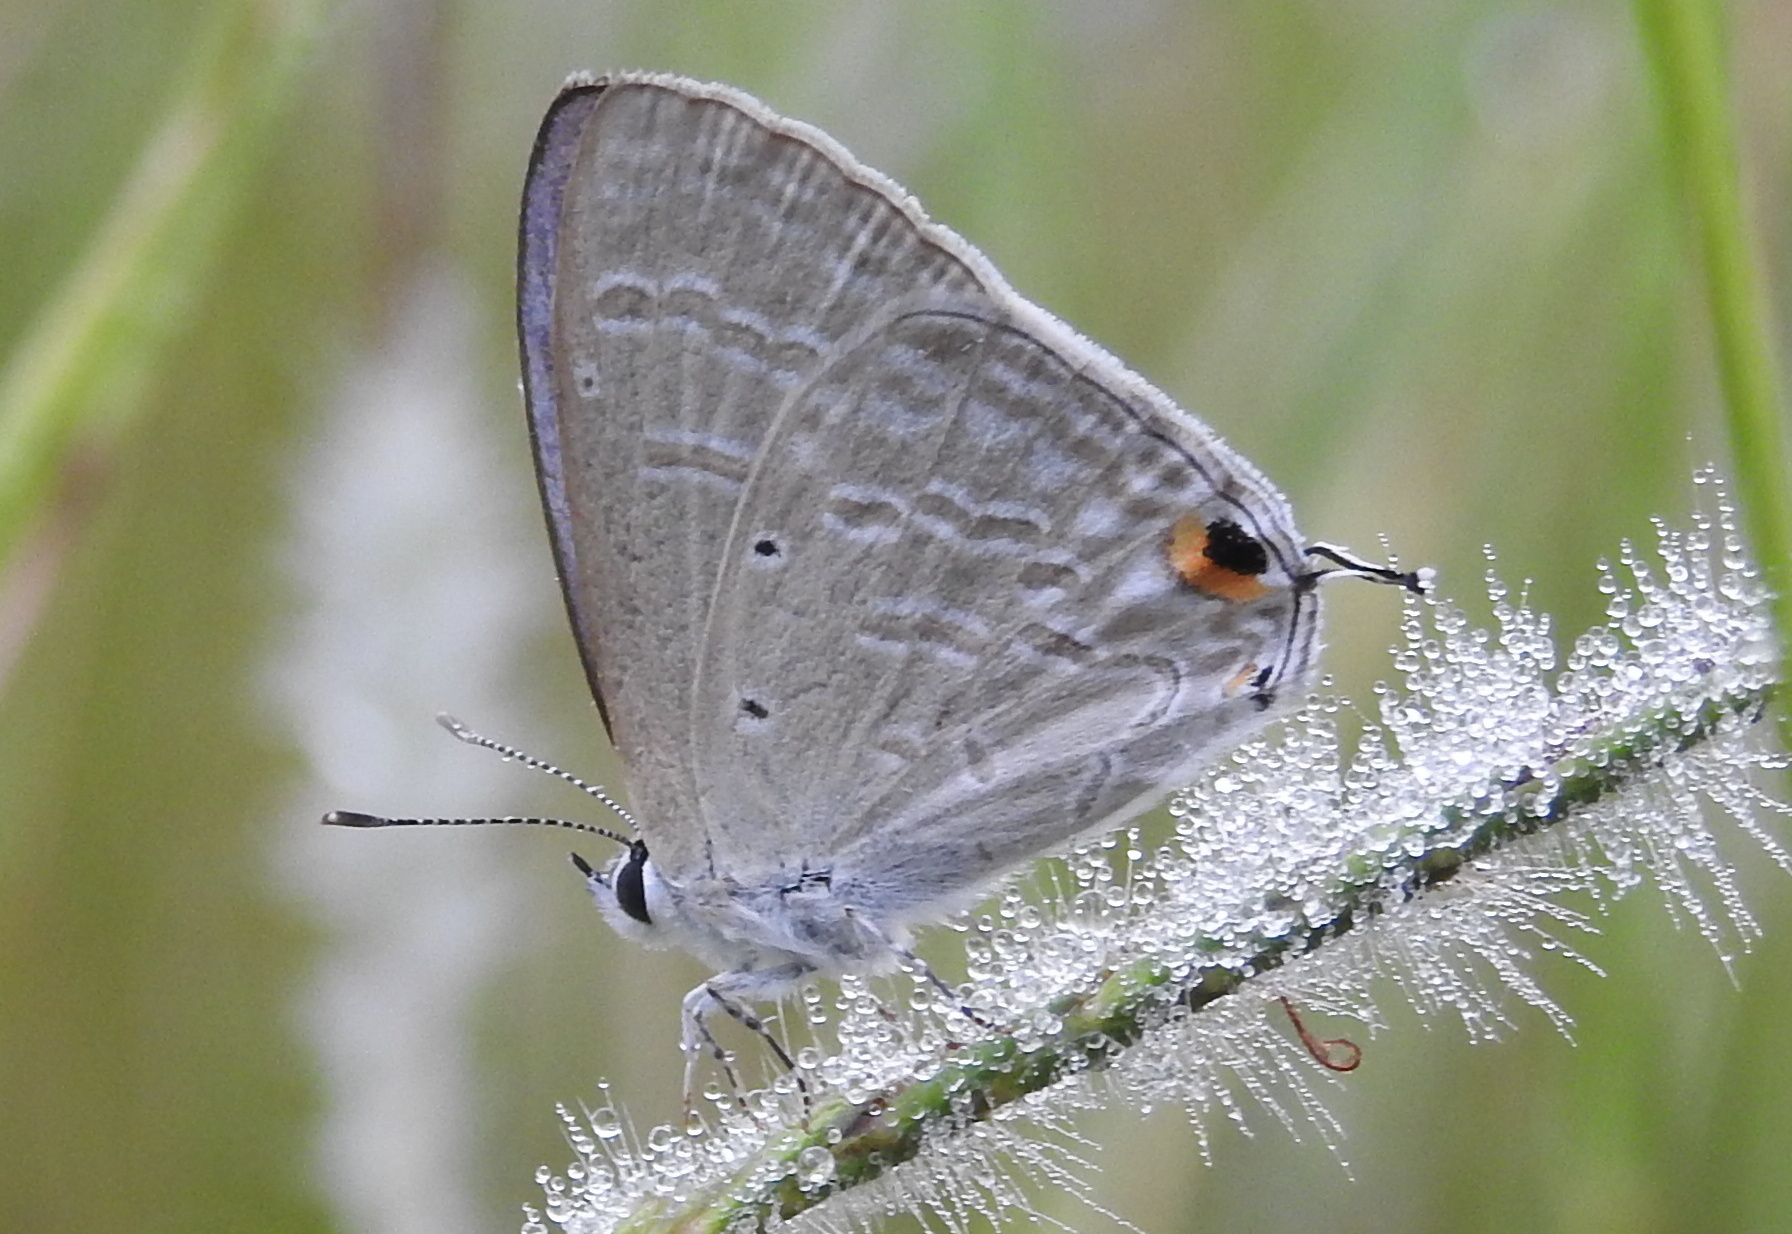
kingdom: Animalia
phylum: Arthropoda
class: Insecta
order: Lepidoptera
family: Lycaenidae
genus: Catochrysops
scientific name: Catochrysops strabo
